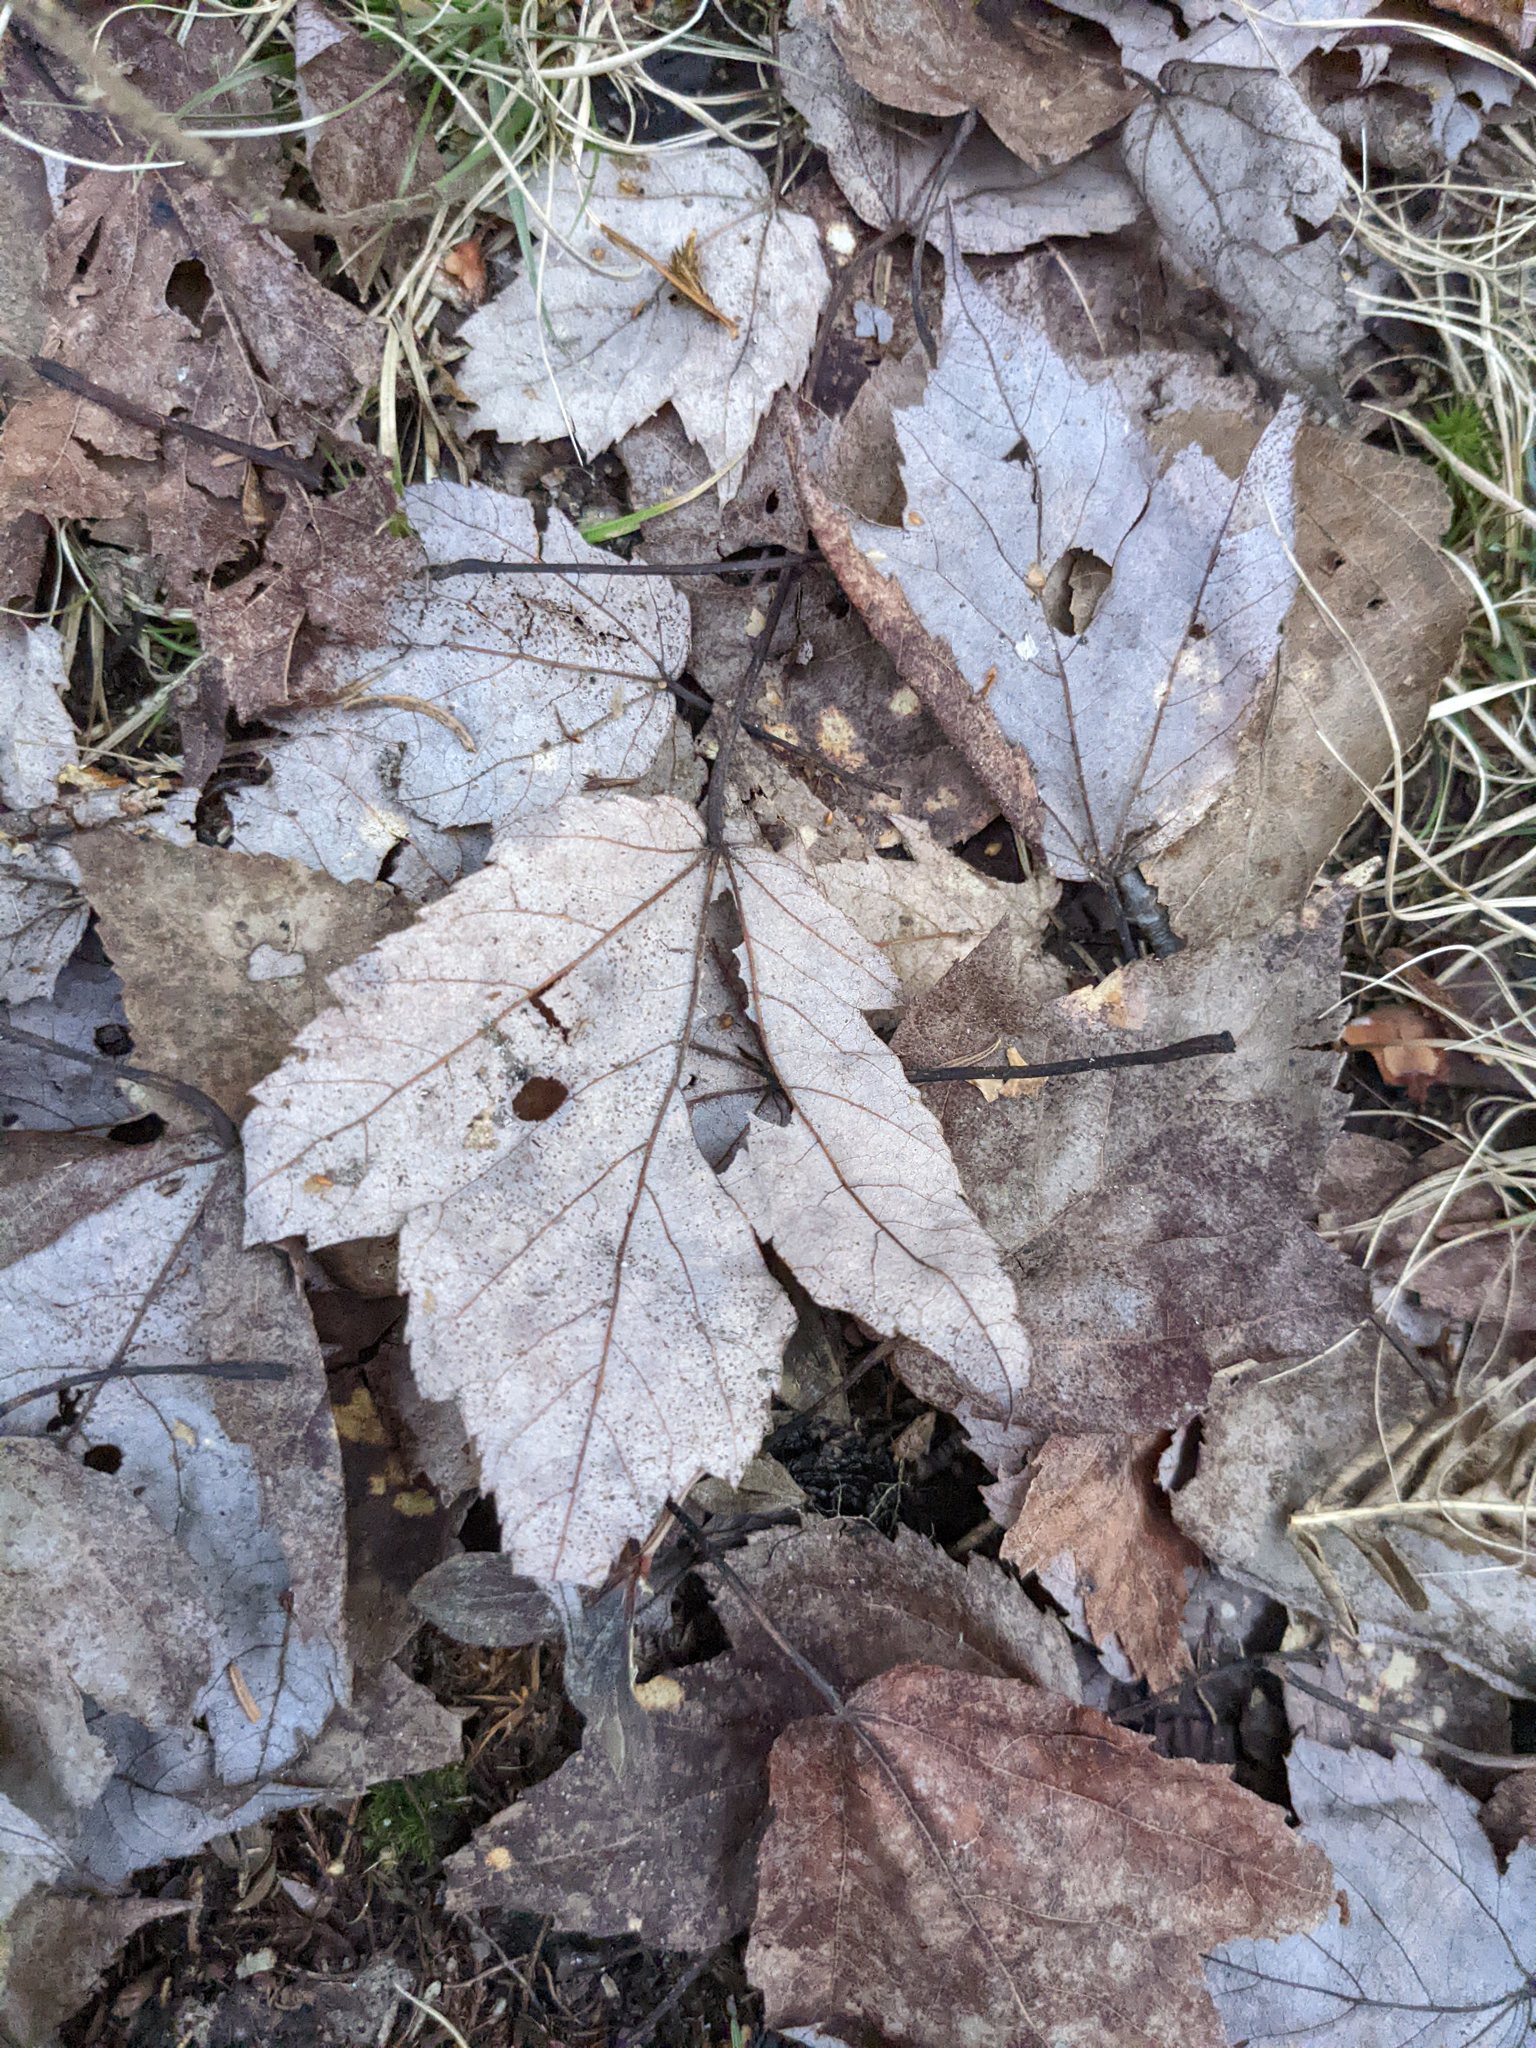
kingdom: Plantae
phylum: Tracheophyta
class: Magnoliopsida
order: Sapindales
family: Sapindaceae
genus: Acer
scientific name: Acer rubrum
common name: Red maple
